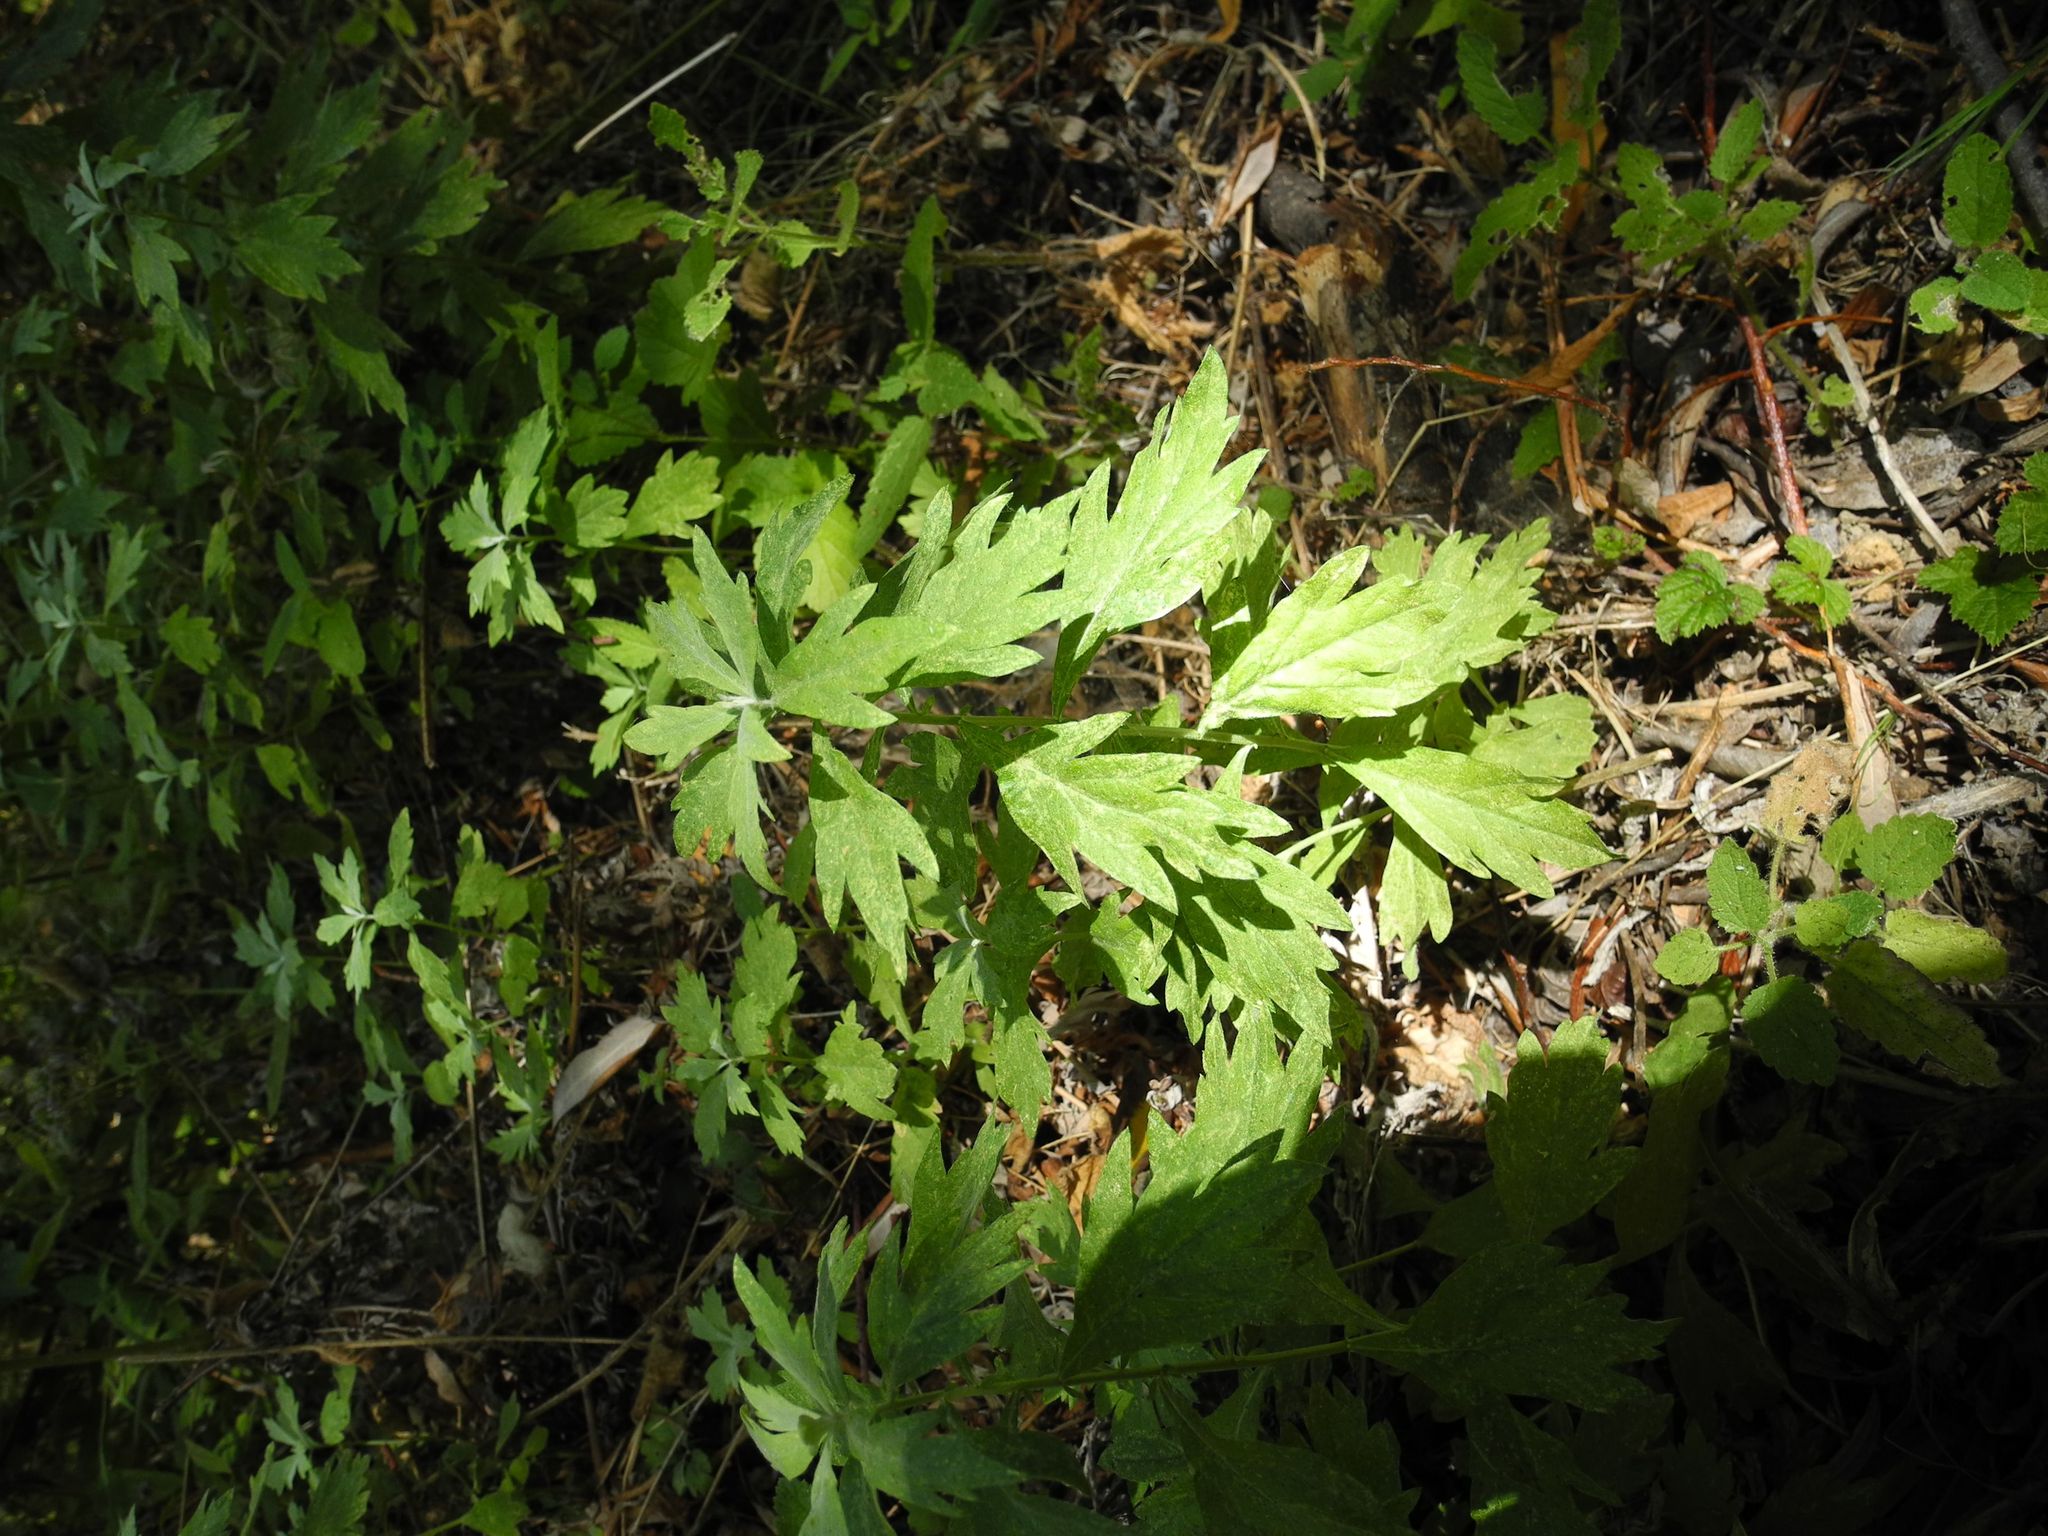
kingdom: Plantae
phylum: Tracheophyta
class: Magnoliopsida
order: Asterales
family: Asteraceae
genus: Artemisia
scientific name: Artemisia douglasiana
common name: Northwest mugwort
